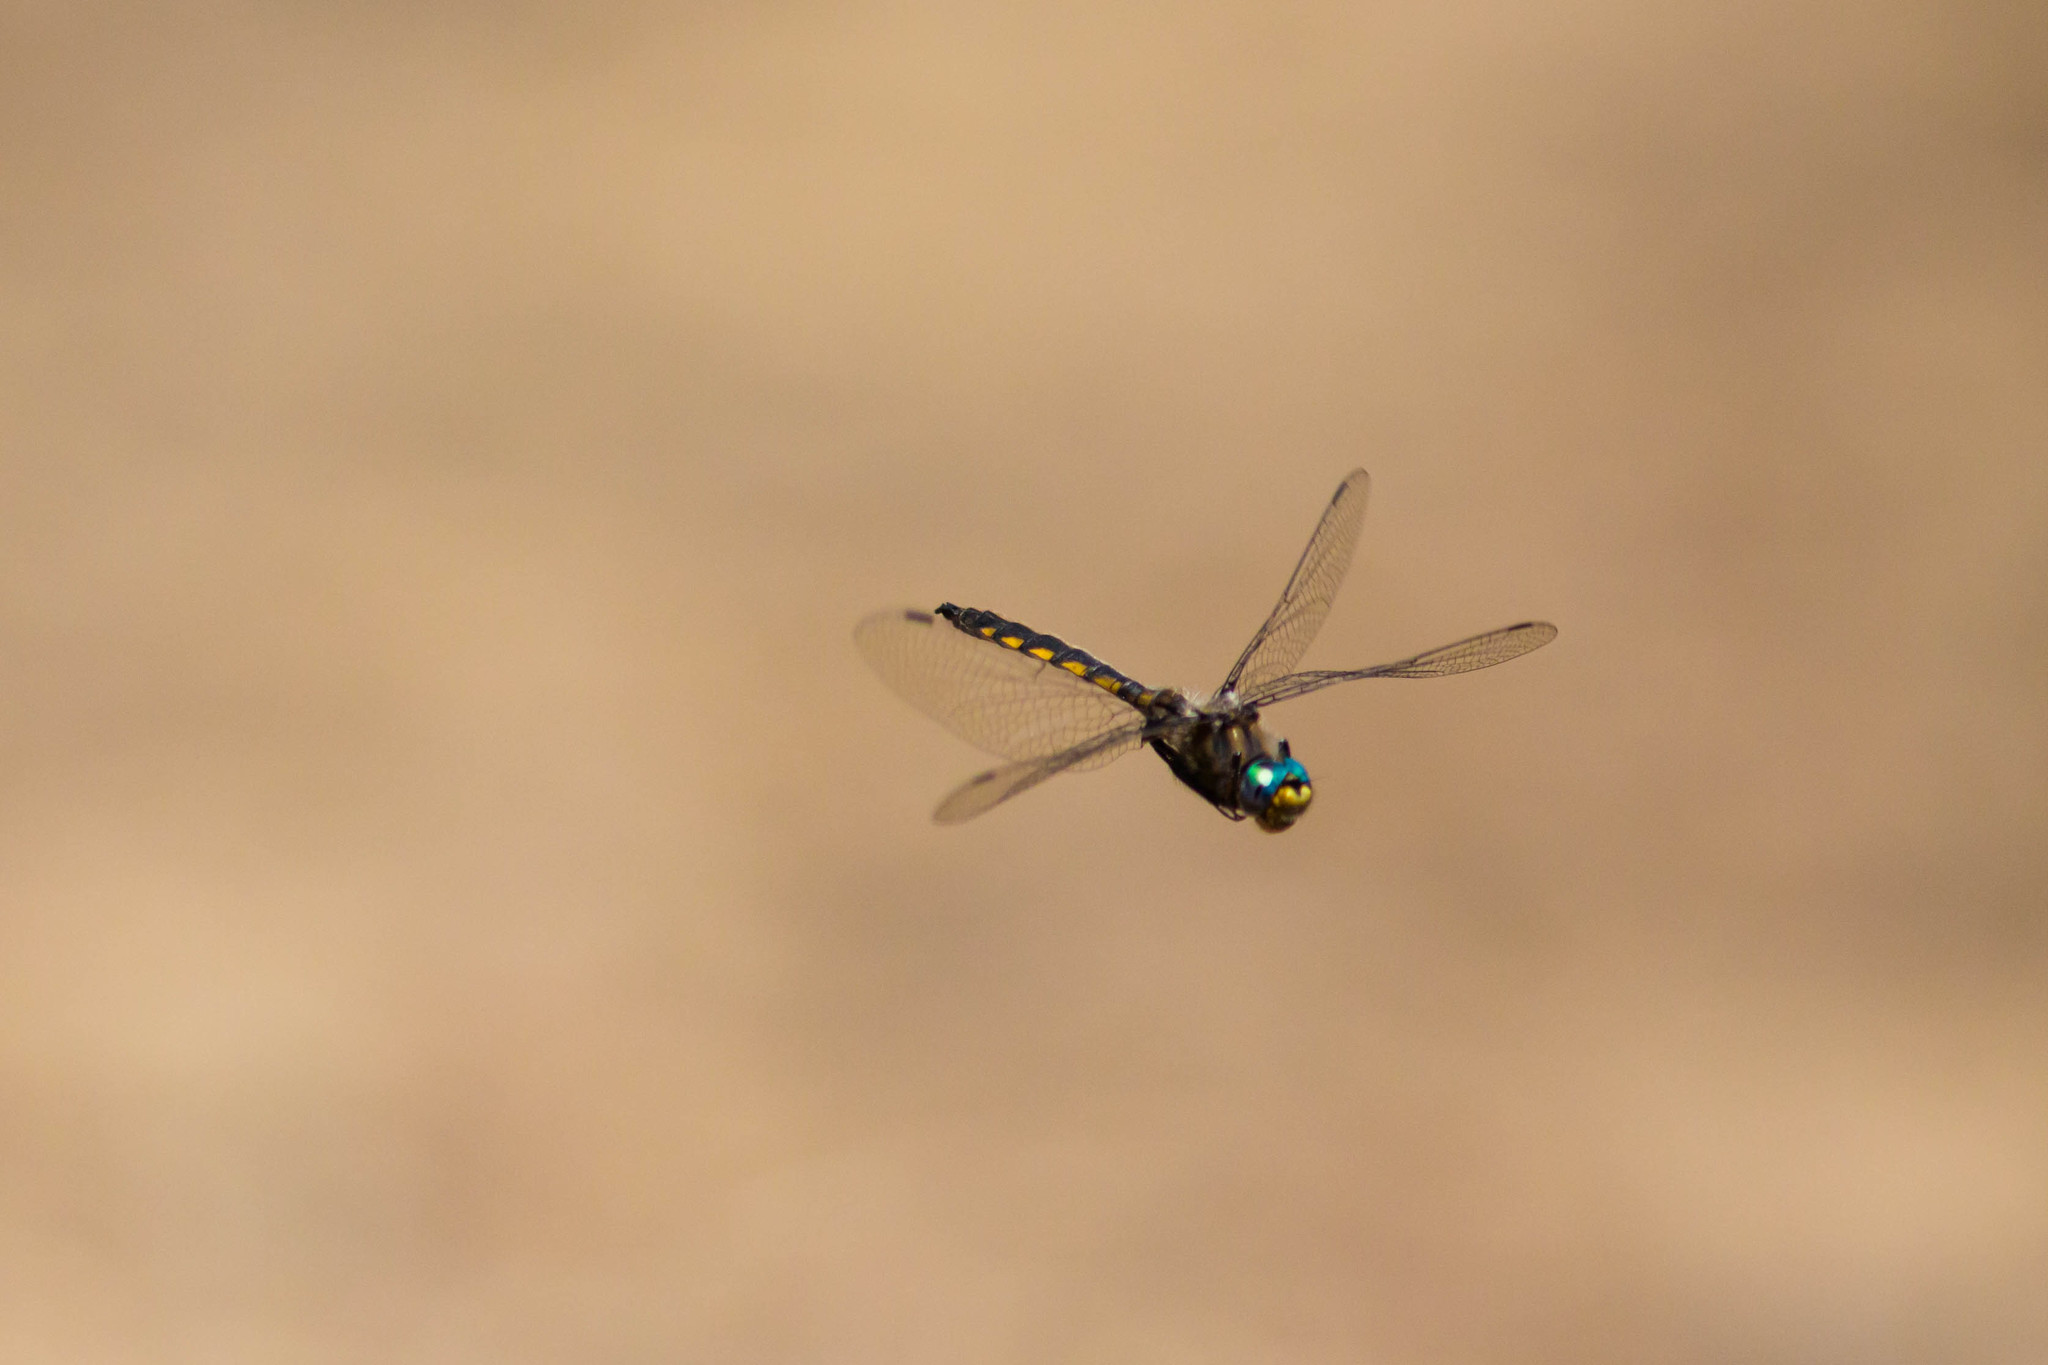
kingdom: Animalia
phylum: Arthropoda
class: Insecta
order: Odonata
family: Corduliidae
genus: Epitheca
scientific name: Epitheca canis
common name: Beaverpond baskettail
